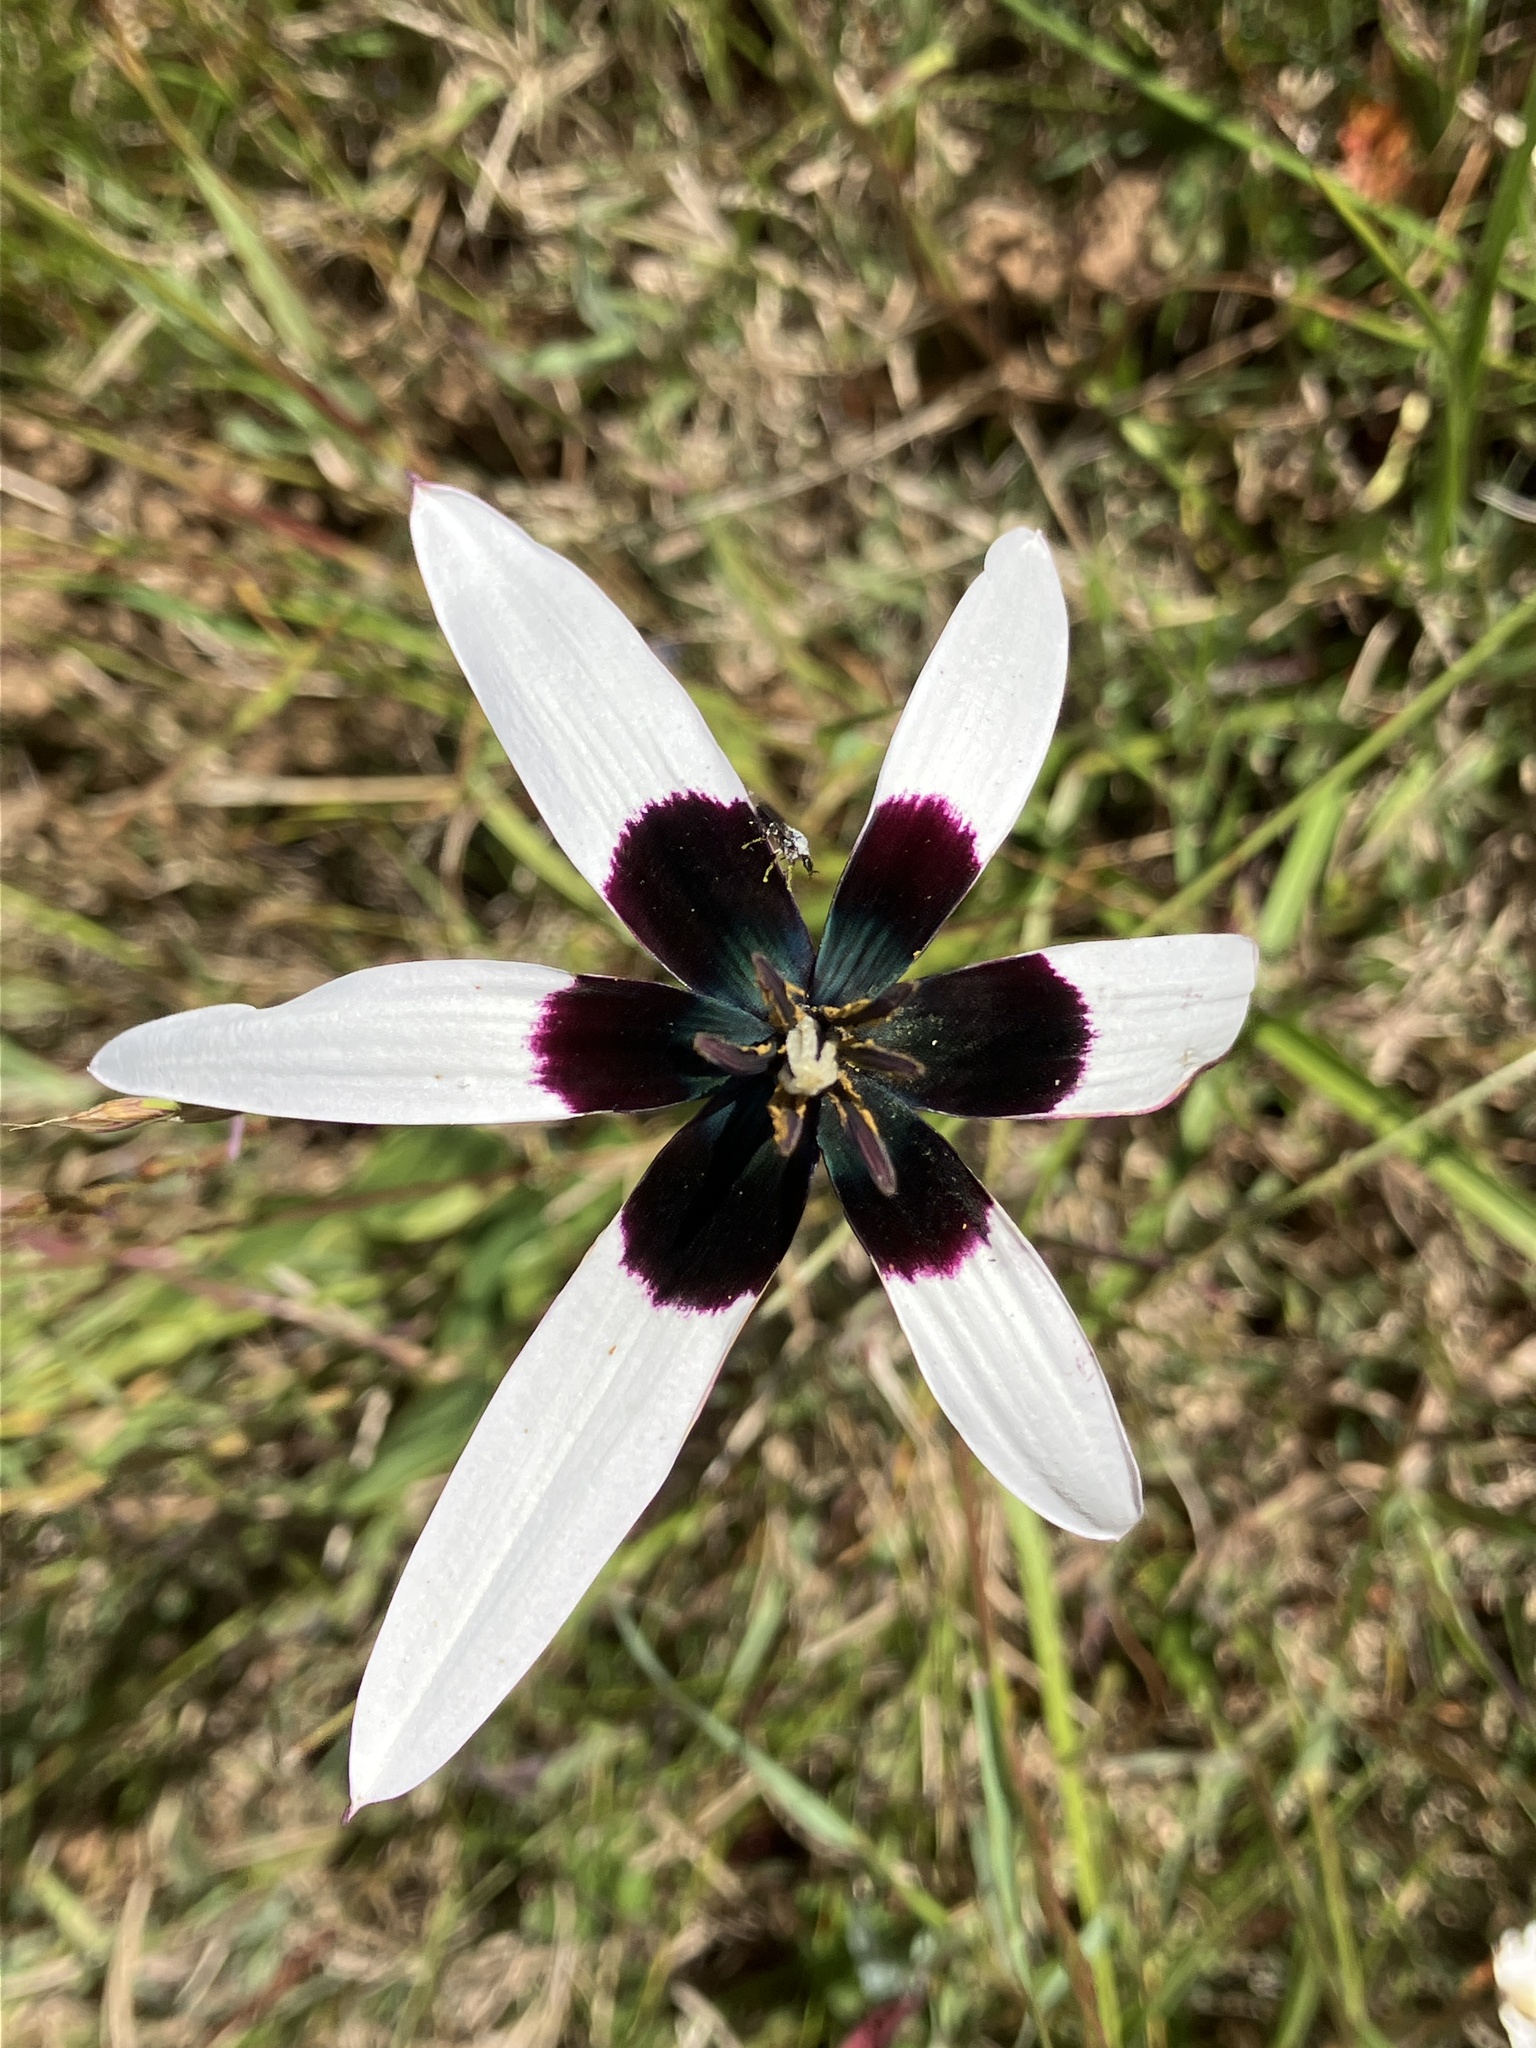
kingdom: Plantae
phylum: Tracheophyta
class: Liliopsida
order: Asparagales
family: Hypoxidaceae
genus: Pauridia
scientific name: Pauridia capensis
